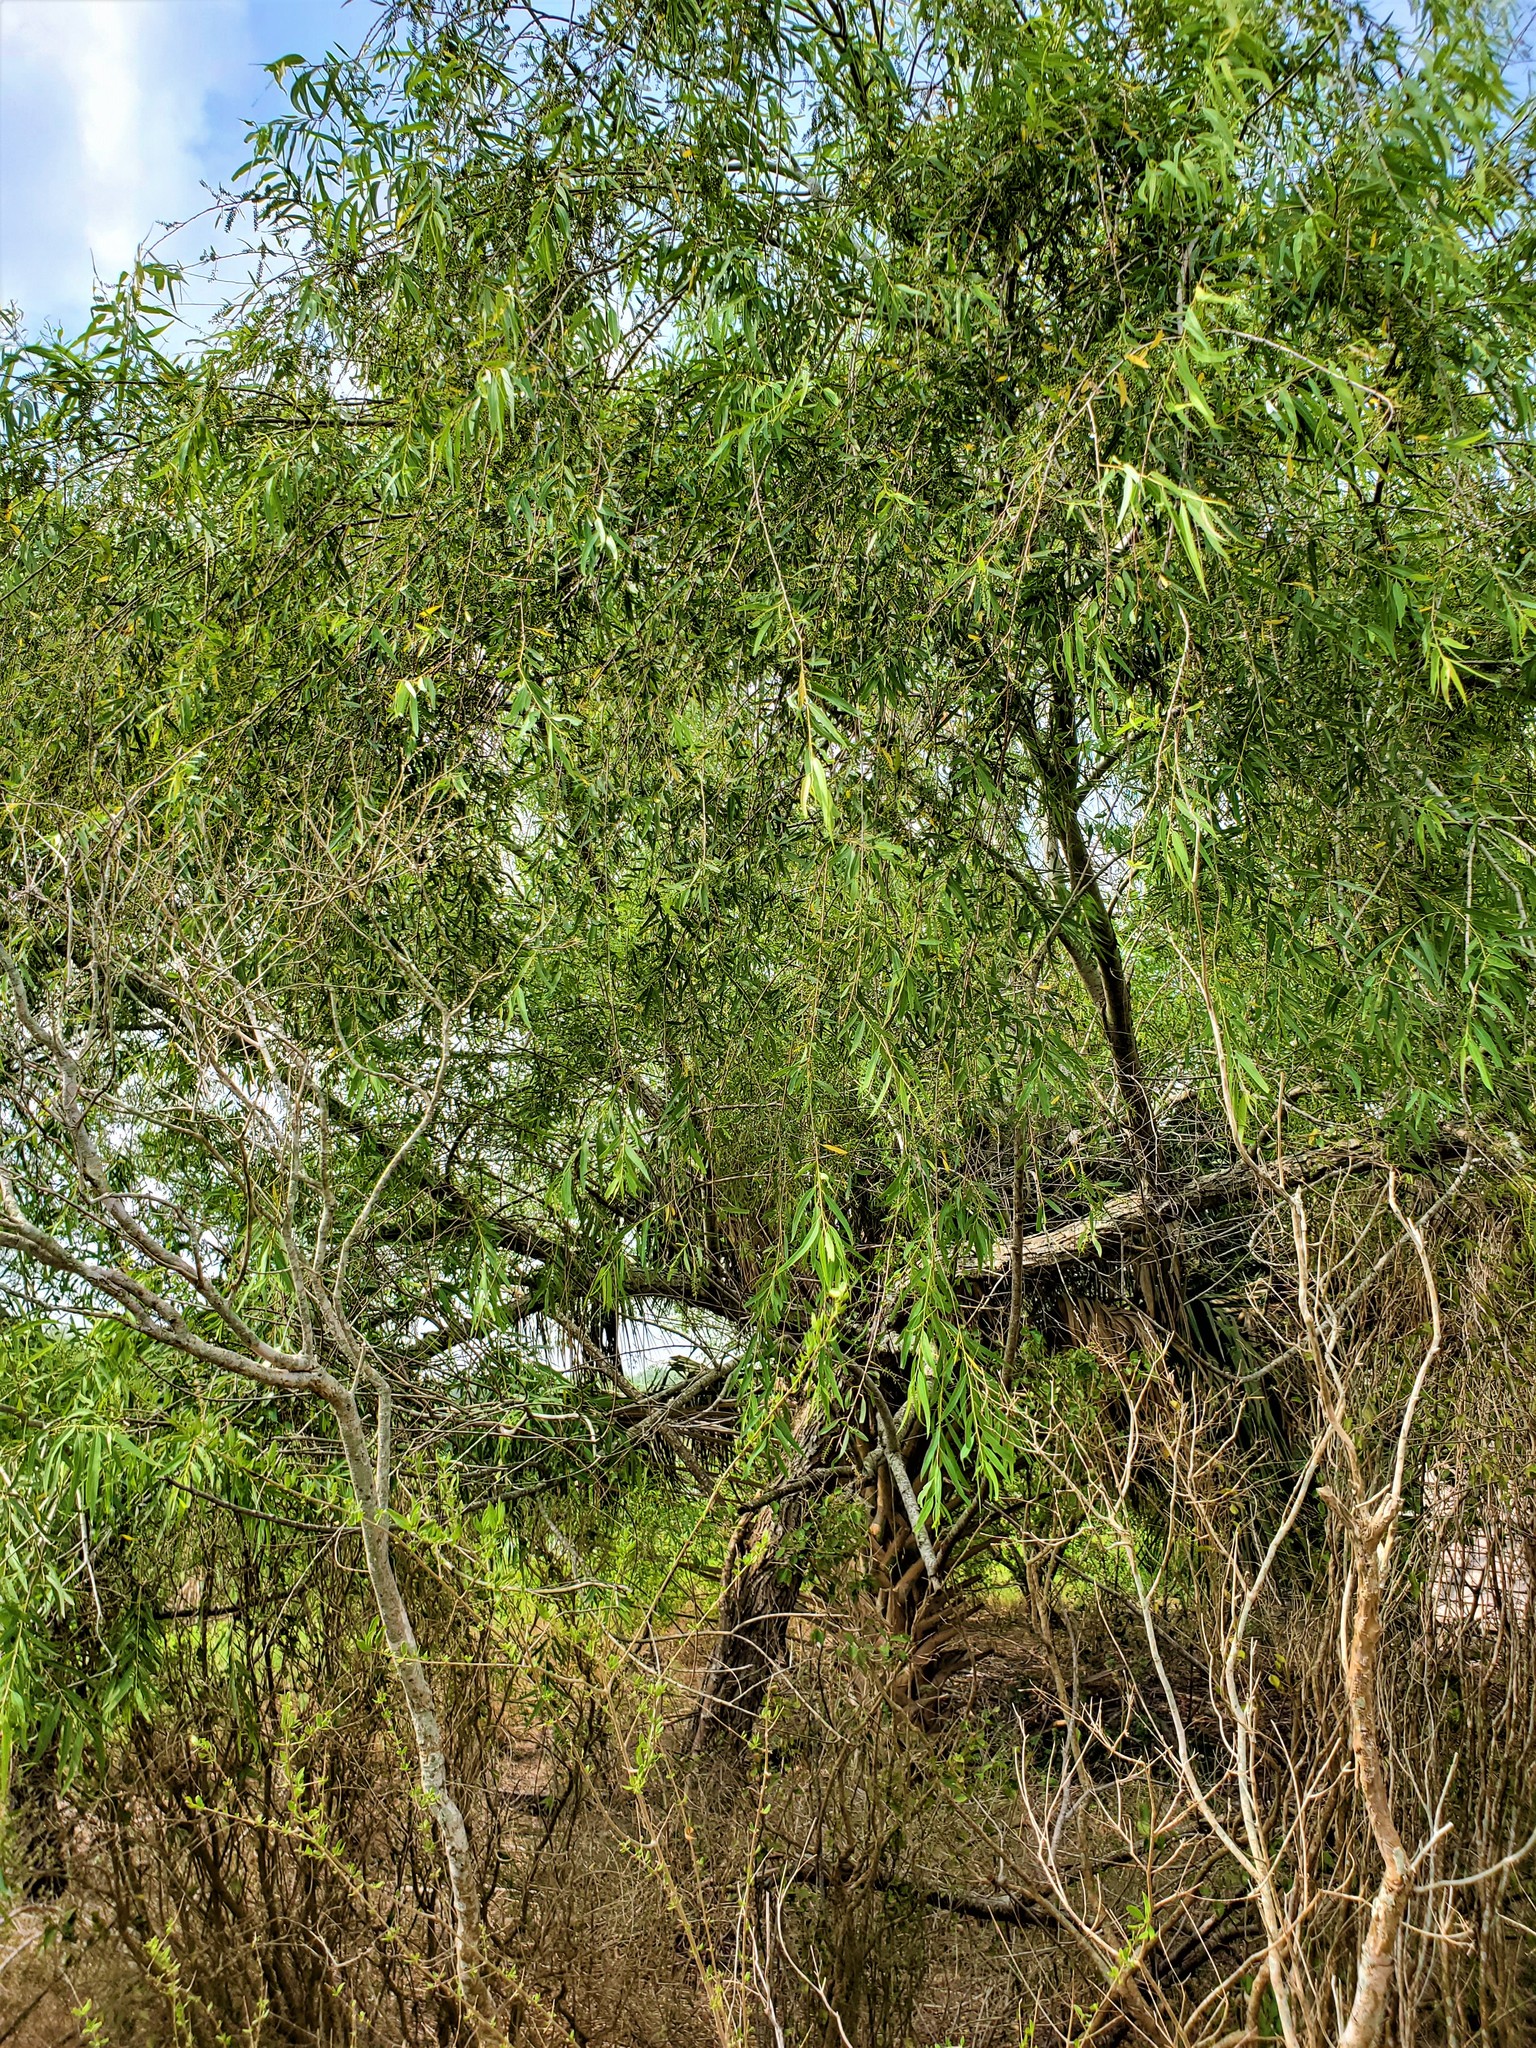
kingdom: Plantae
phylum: Tracheophyta
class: Magnoliopsida
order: Malpighiales
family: Salicaceae
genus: Salix
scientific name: Salix nigra
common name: Black willow
